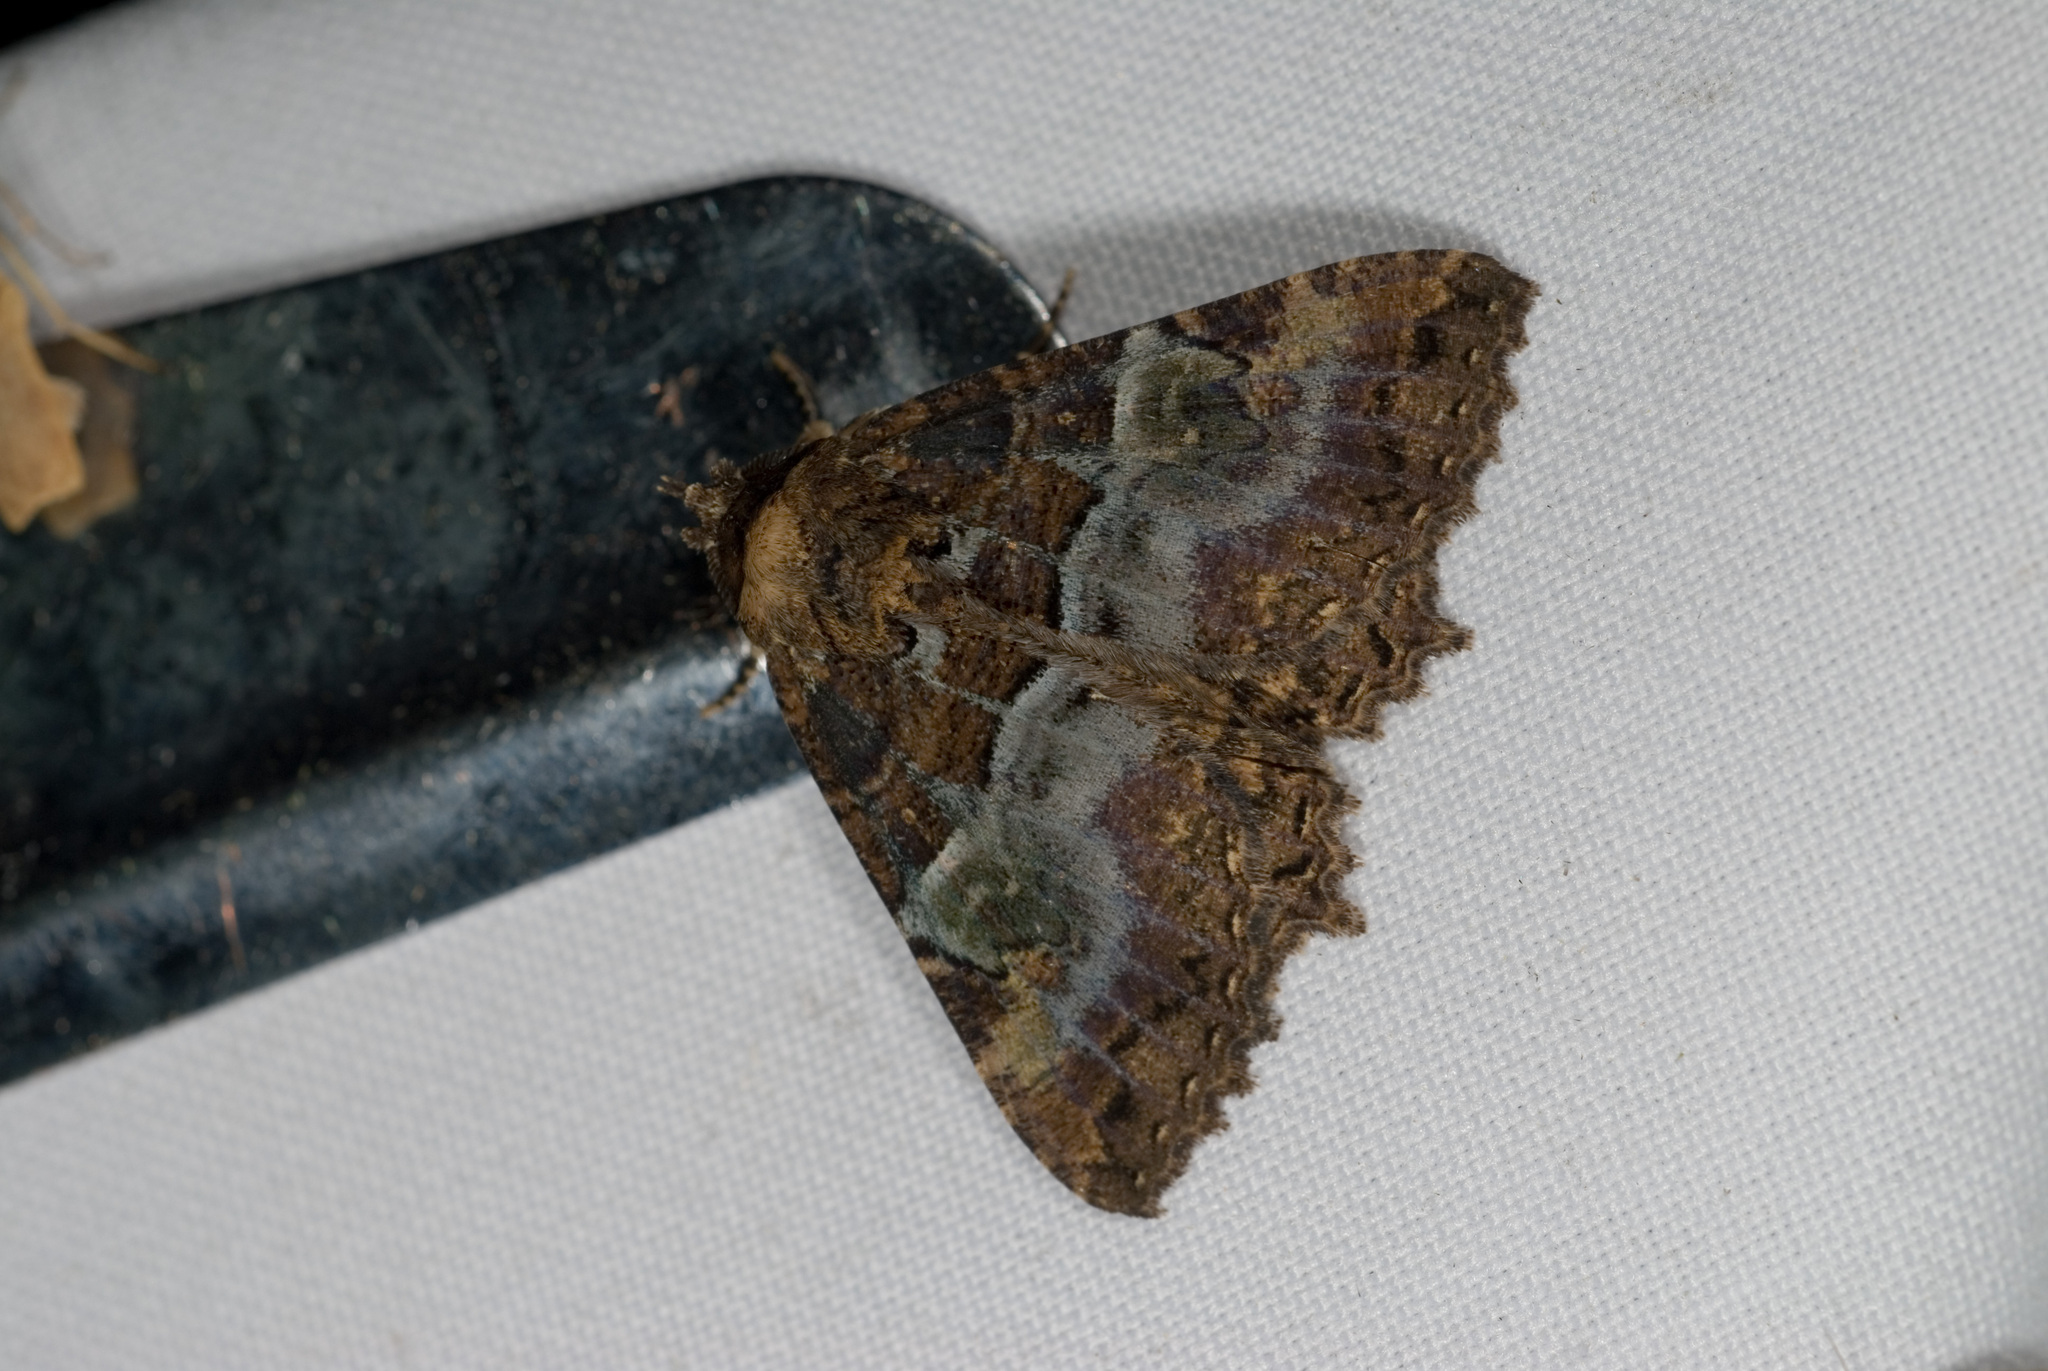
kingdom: Animalia
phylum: Arthropoda
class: Insecta
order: Lepidoptera
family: Erebidae
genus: Daddala
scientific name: Daddala lucilla
